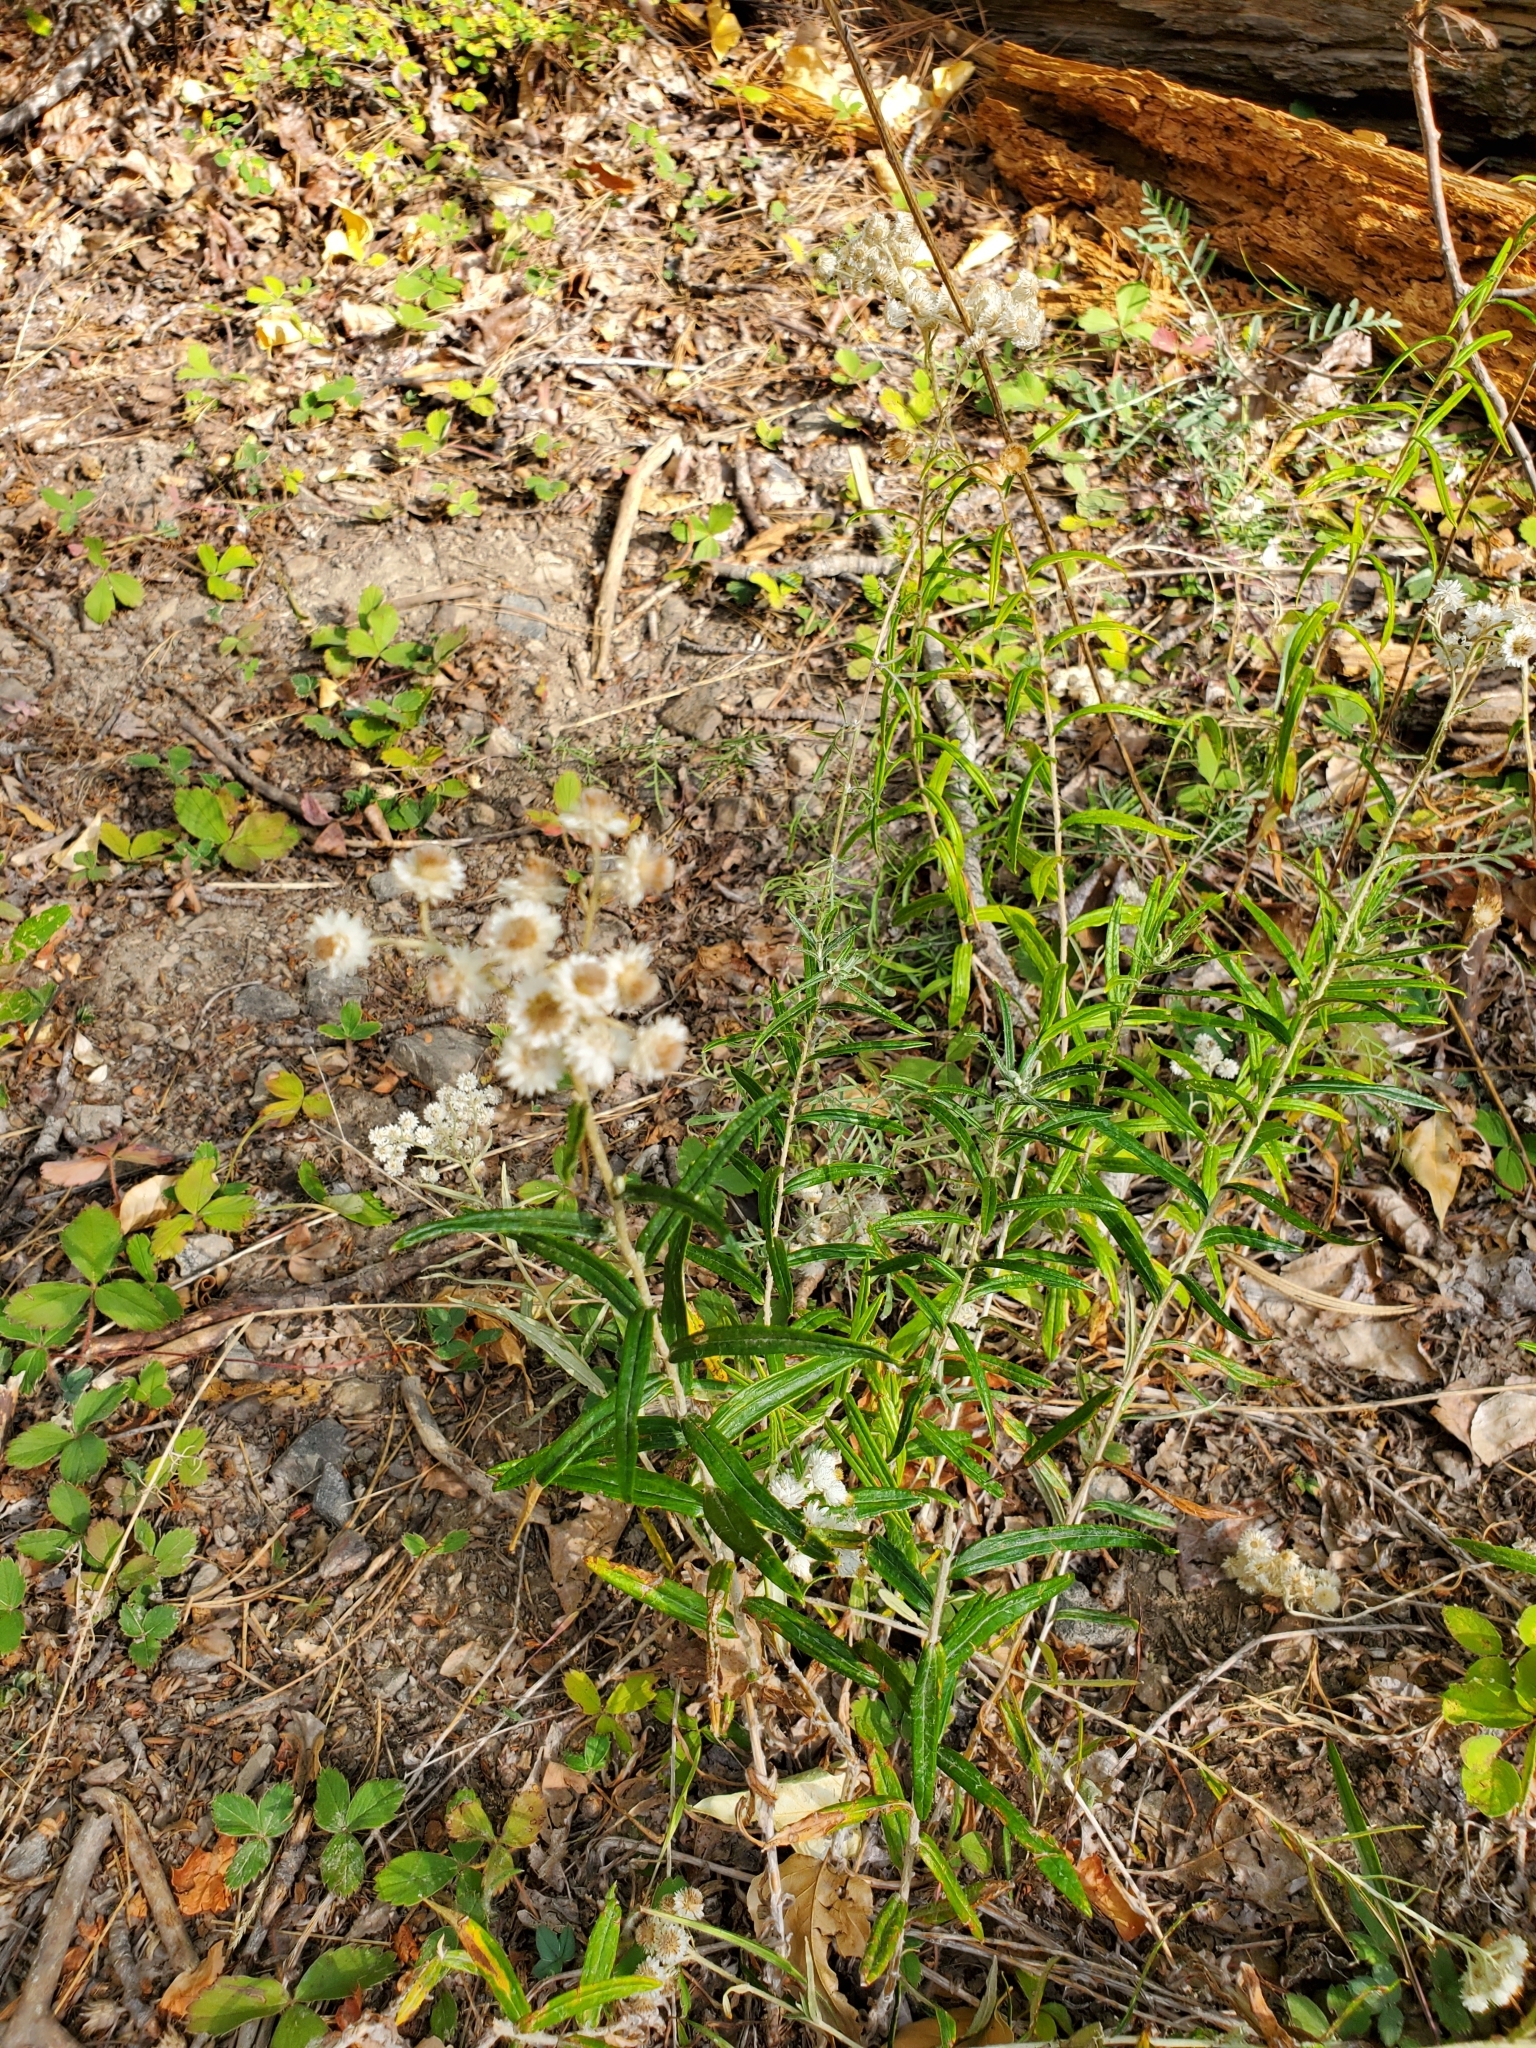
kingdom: Plantae
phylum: Tracheophyta
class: Magnoliopsida
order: Asterales
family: Asteraceae
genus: Anaphalis
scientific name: Anaphalis margaritacea
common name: Pearly everlasting
